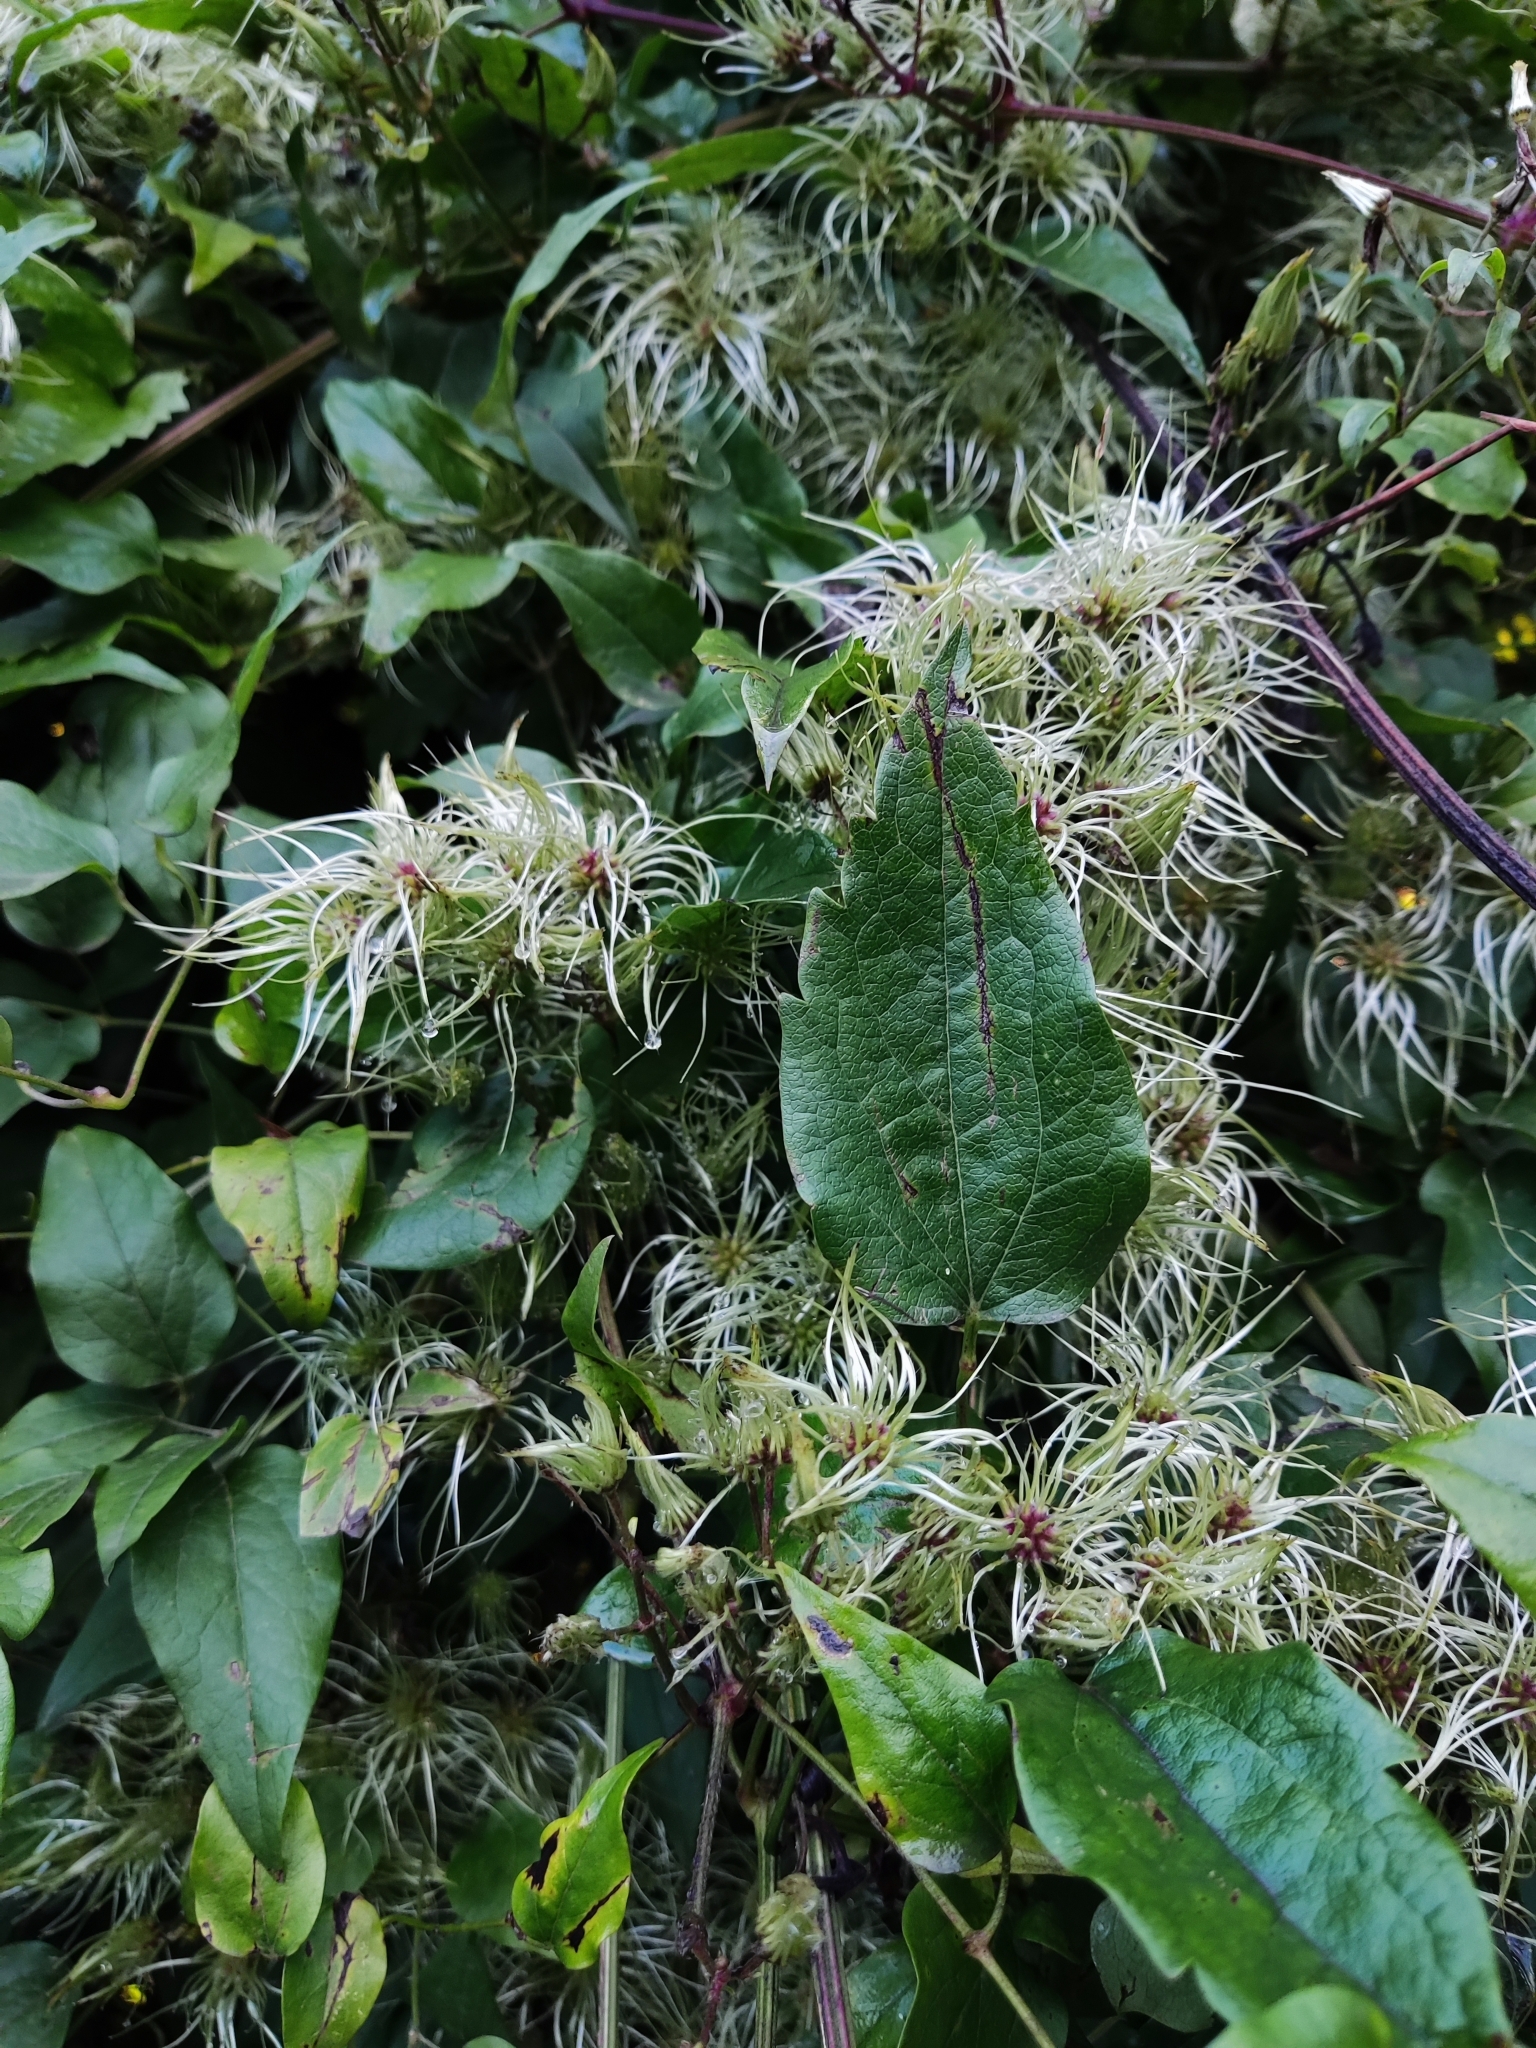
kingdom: Plantae
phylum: Tracheophyta
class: Magnoliopsida
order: Ranunculales
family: Ranunculaceae
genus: Clematis
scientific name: Clematis vitalba
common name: Evergreen clematis
